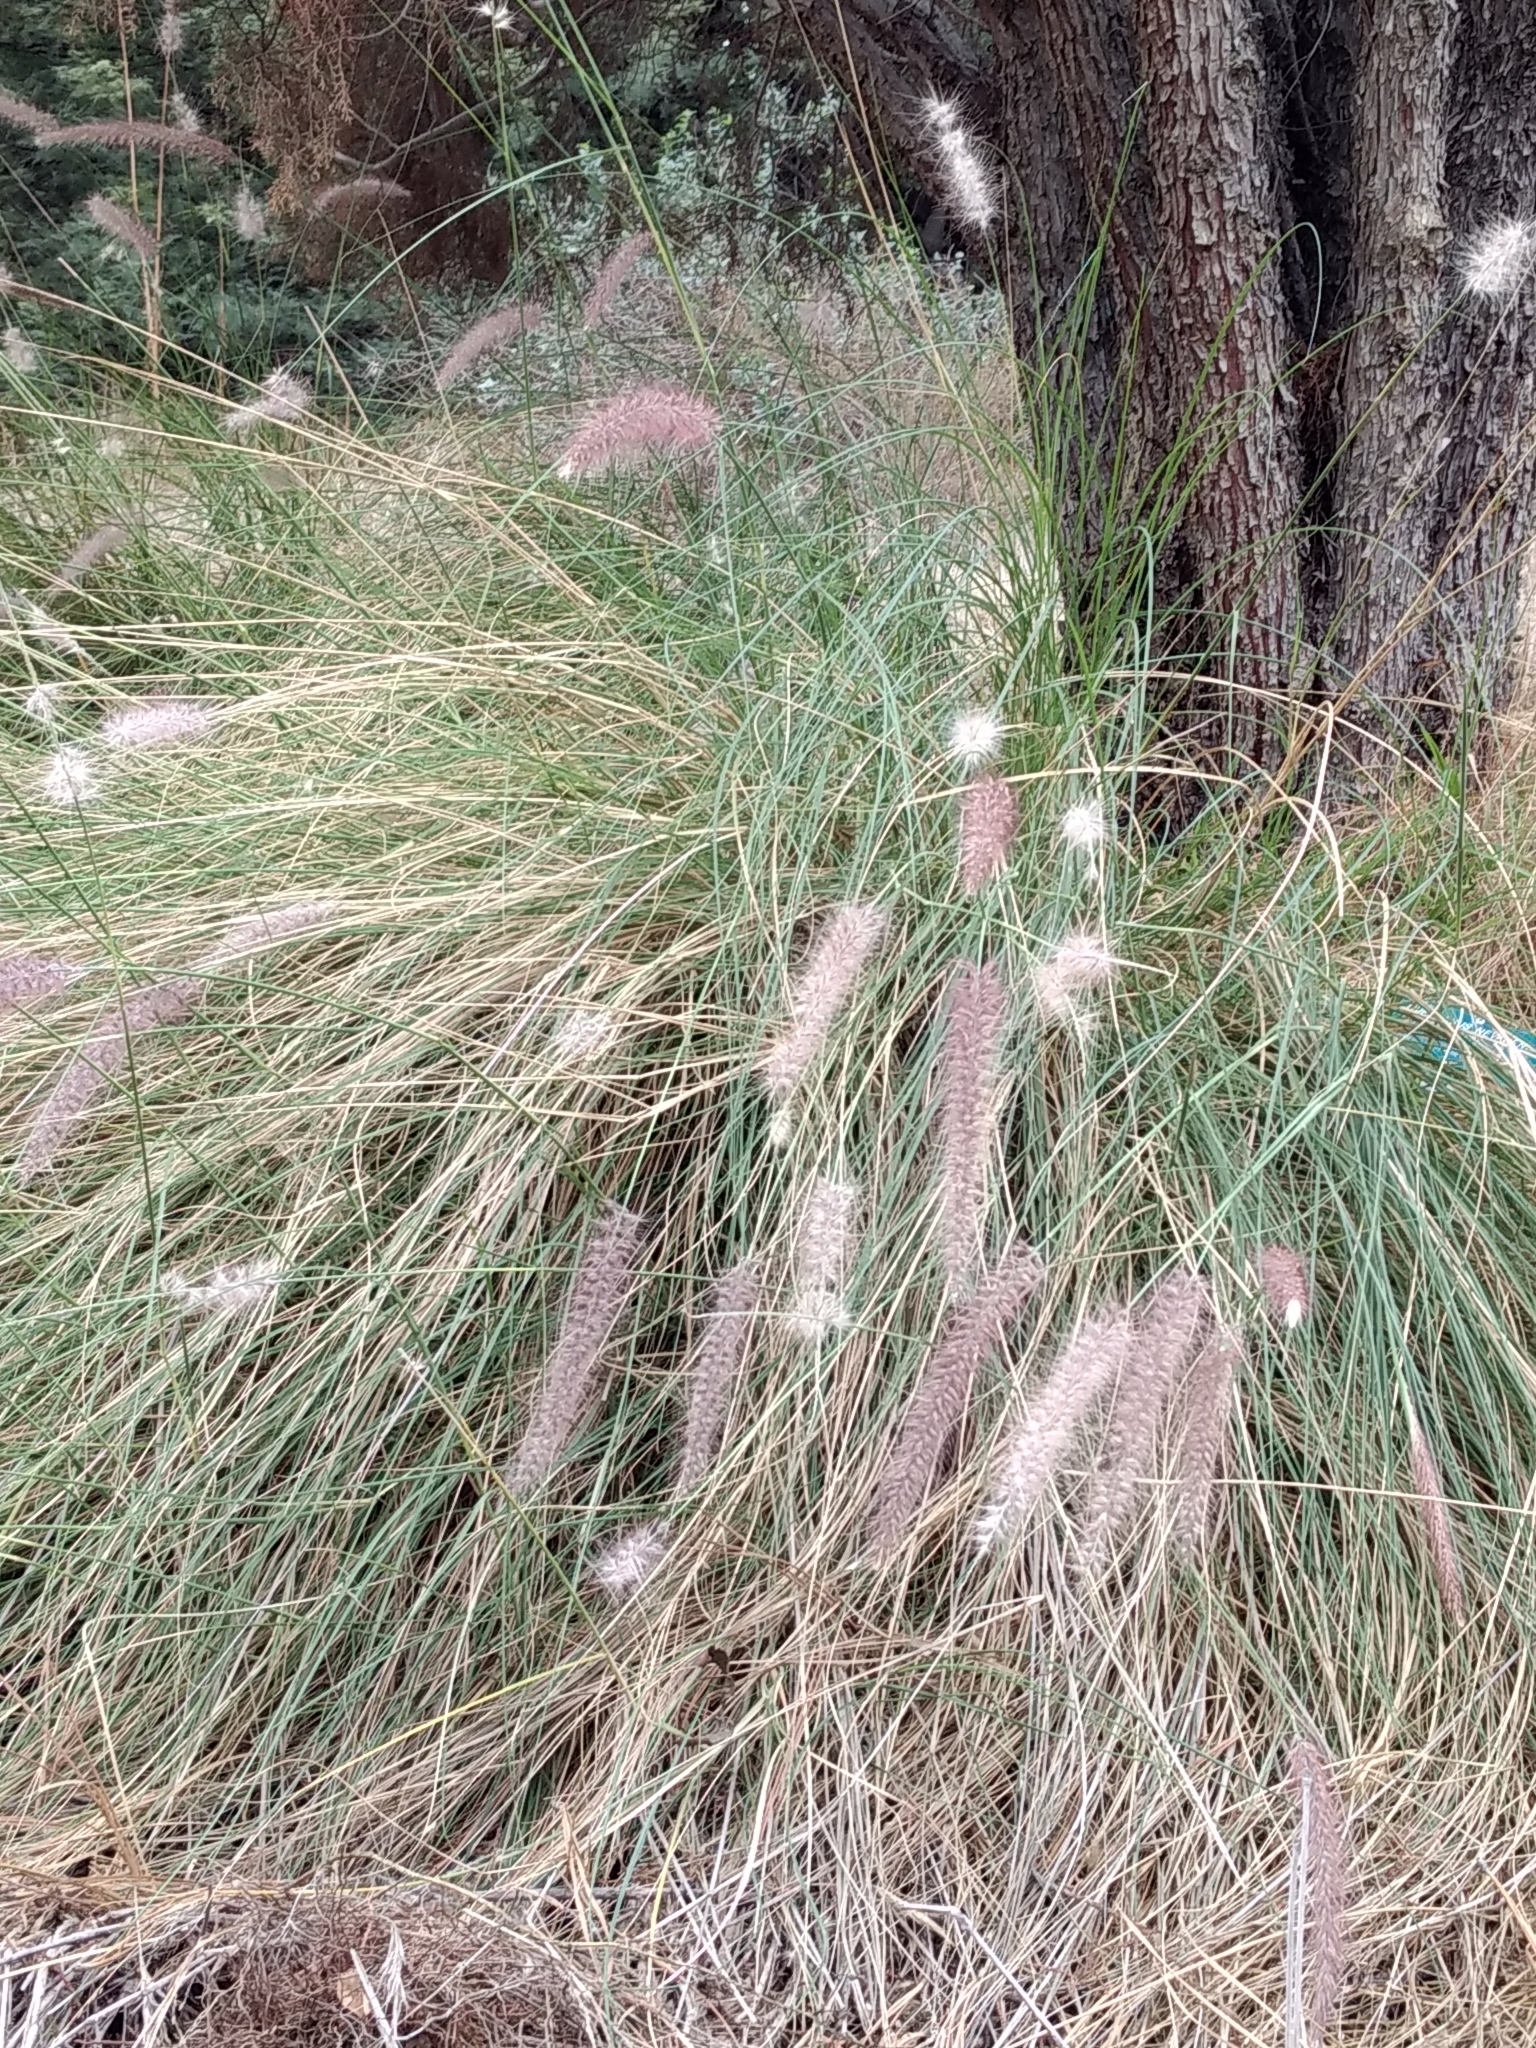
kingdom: Plantae
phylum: Tracheophyta
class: Liliopsida
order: Poales
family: Poaceae
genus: Cenchrus
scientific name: Cenchrus setaceus
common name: Crimson fountaingrass
